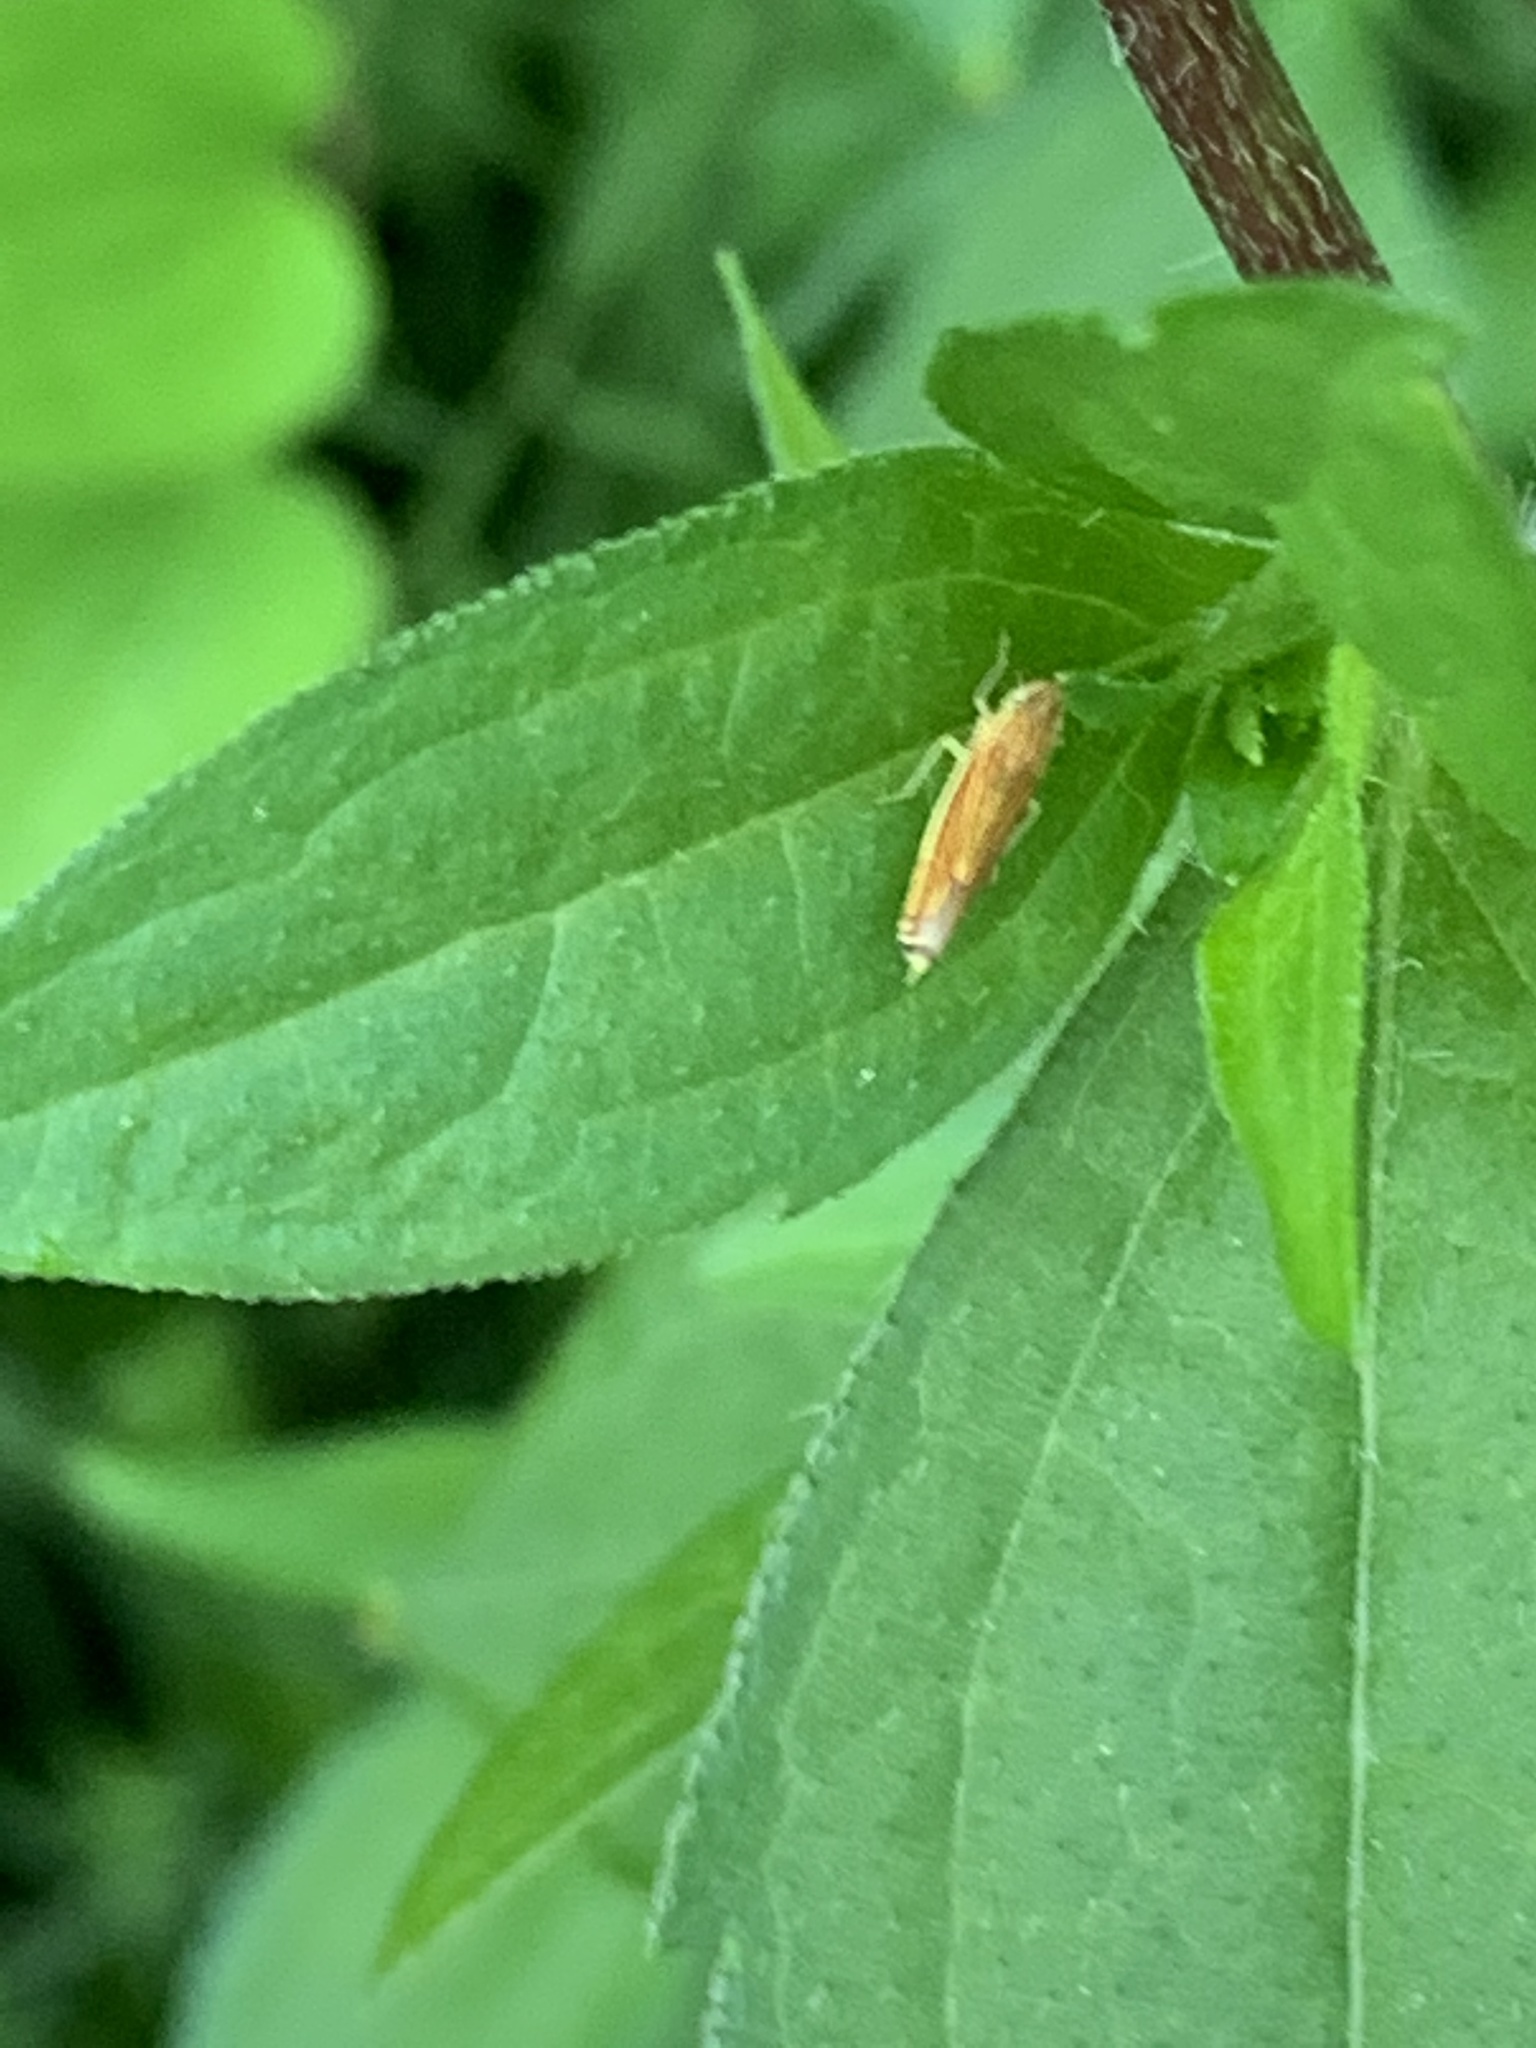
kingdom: Animalia
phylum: Arthropoda
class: Insecta
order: Hemiptera
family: Cicadellidae
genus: Sibovia
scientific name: Sibovia occatoria
